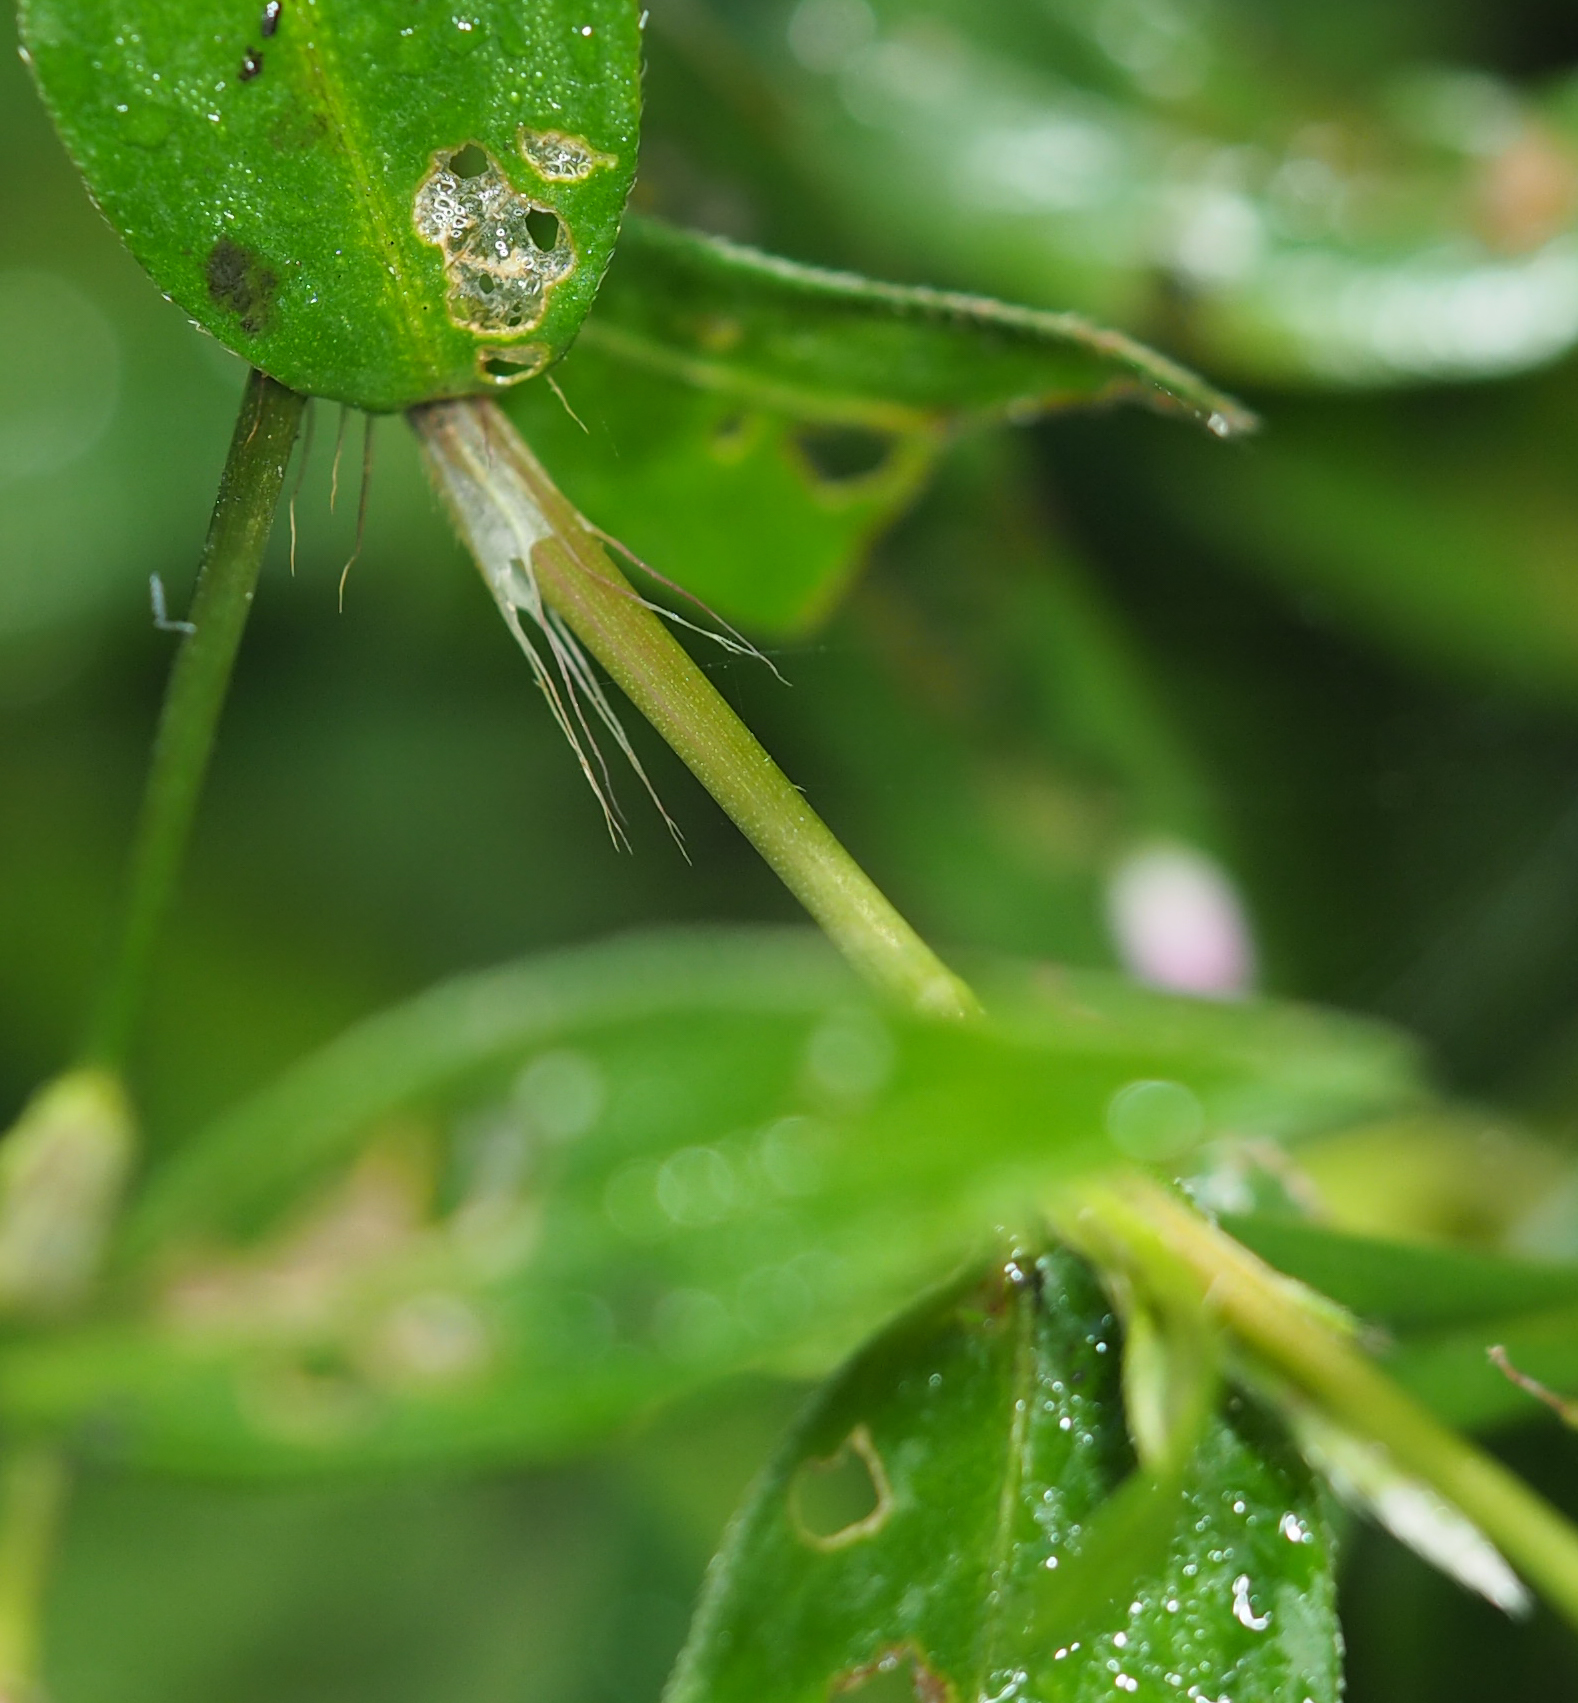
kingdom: Plantae
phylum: Tracheophyta
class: Magnoliopsida
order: Caryophyllales
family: Polygonaceae
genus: Persicaria
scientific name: Persicaria longiseta
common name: Bristly lady's-thumb
